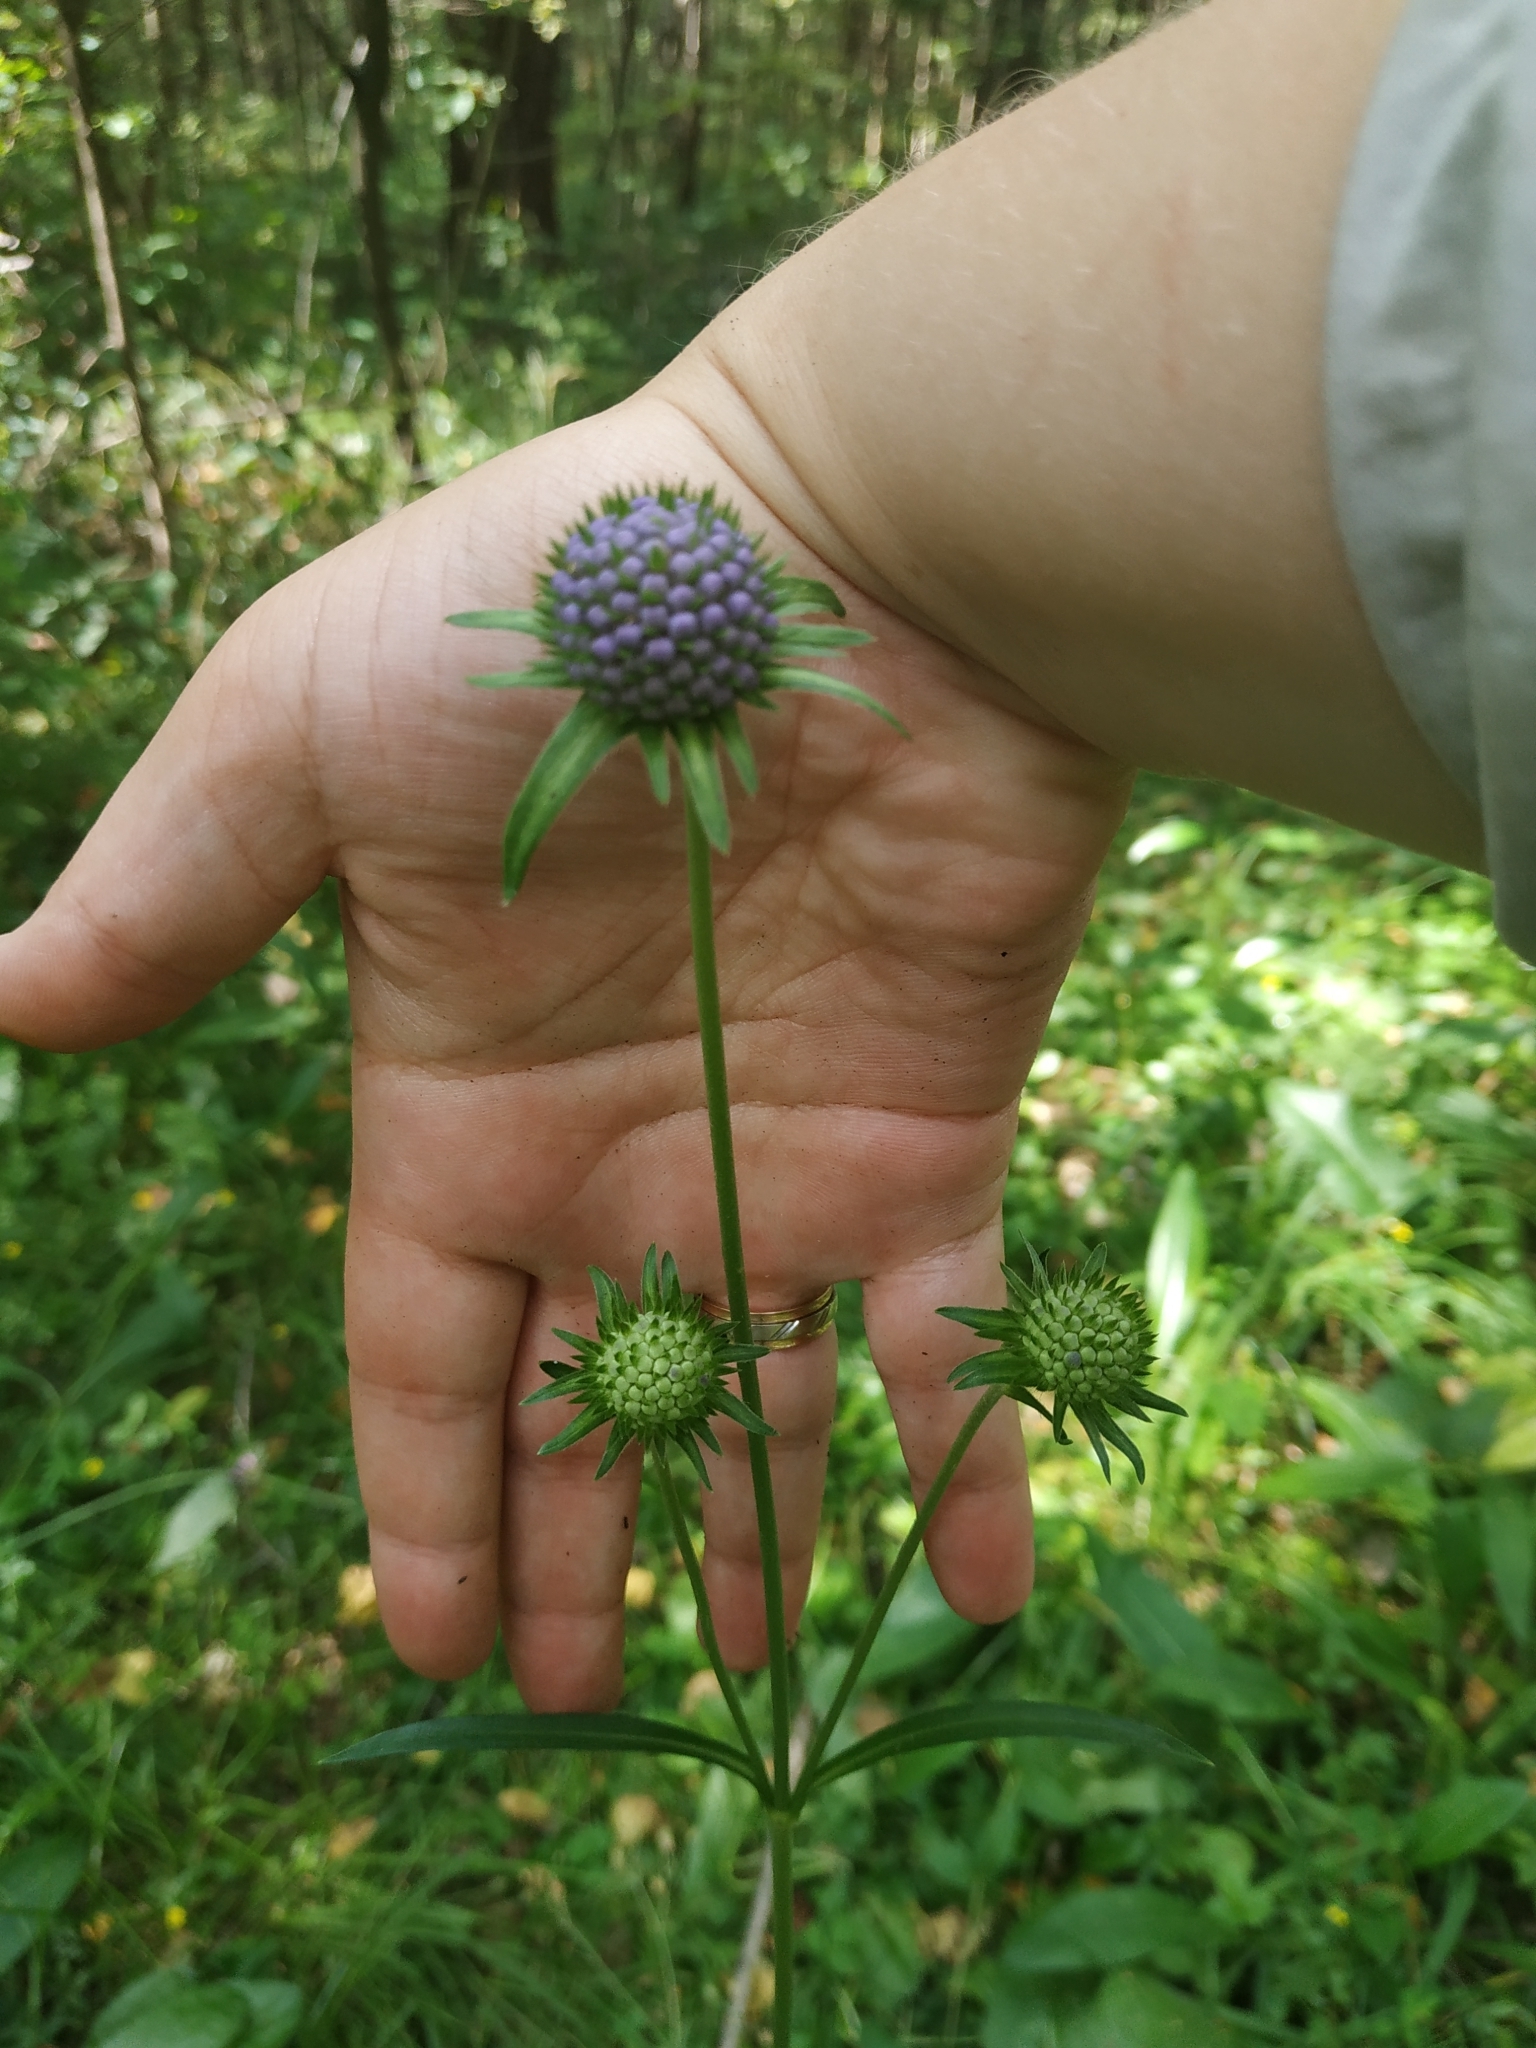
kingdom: Plantae
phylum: Tracheophyta
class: Magnoliopsida
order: Dipsacales
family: Caprifoliaceae
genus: Succisa
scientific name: Succisa pratensis
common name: Devil's-bit
